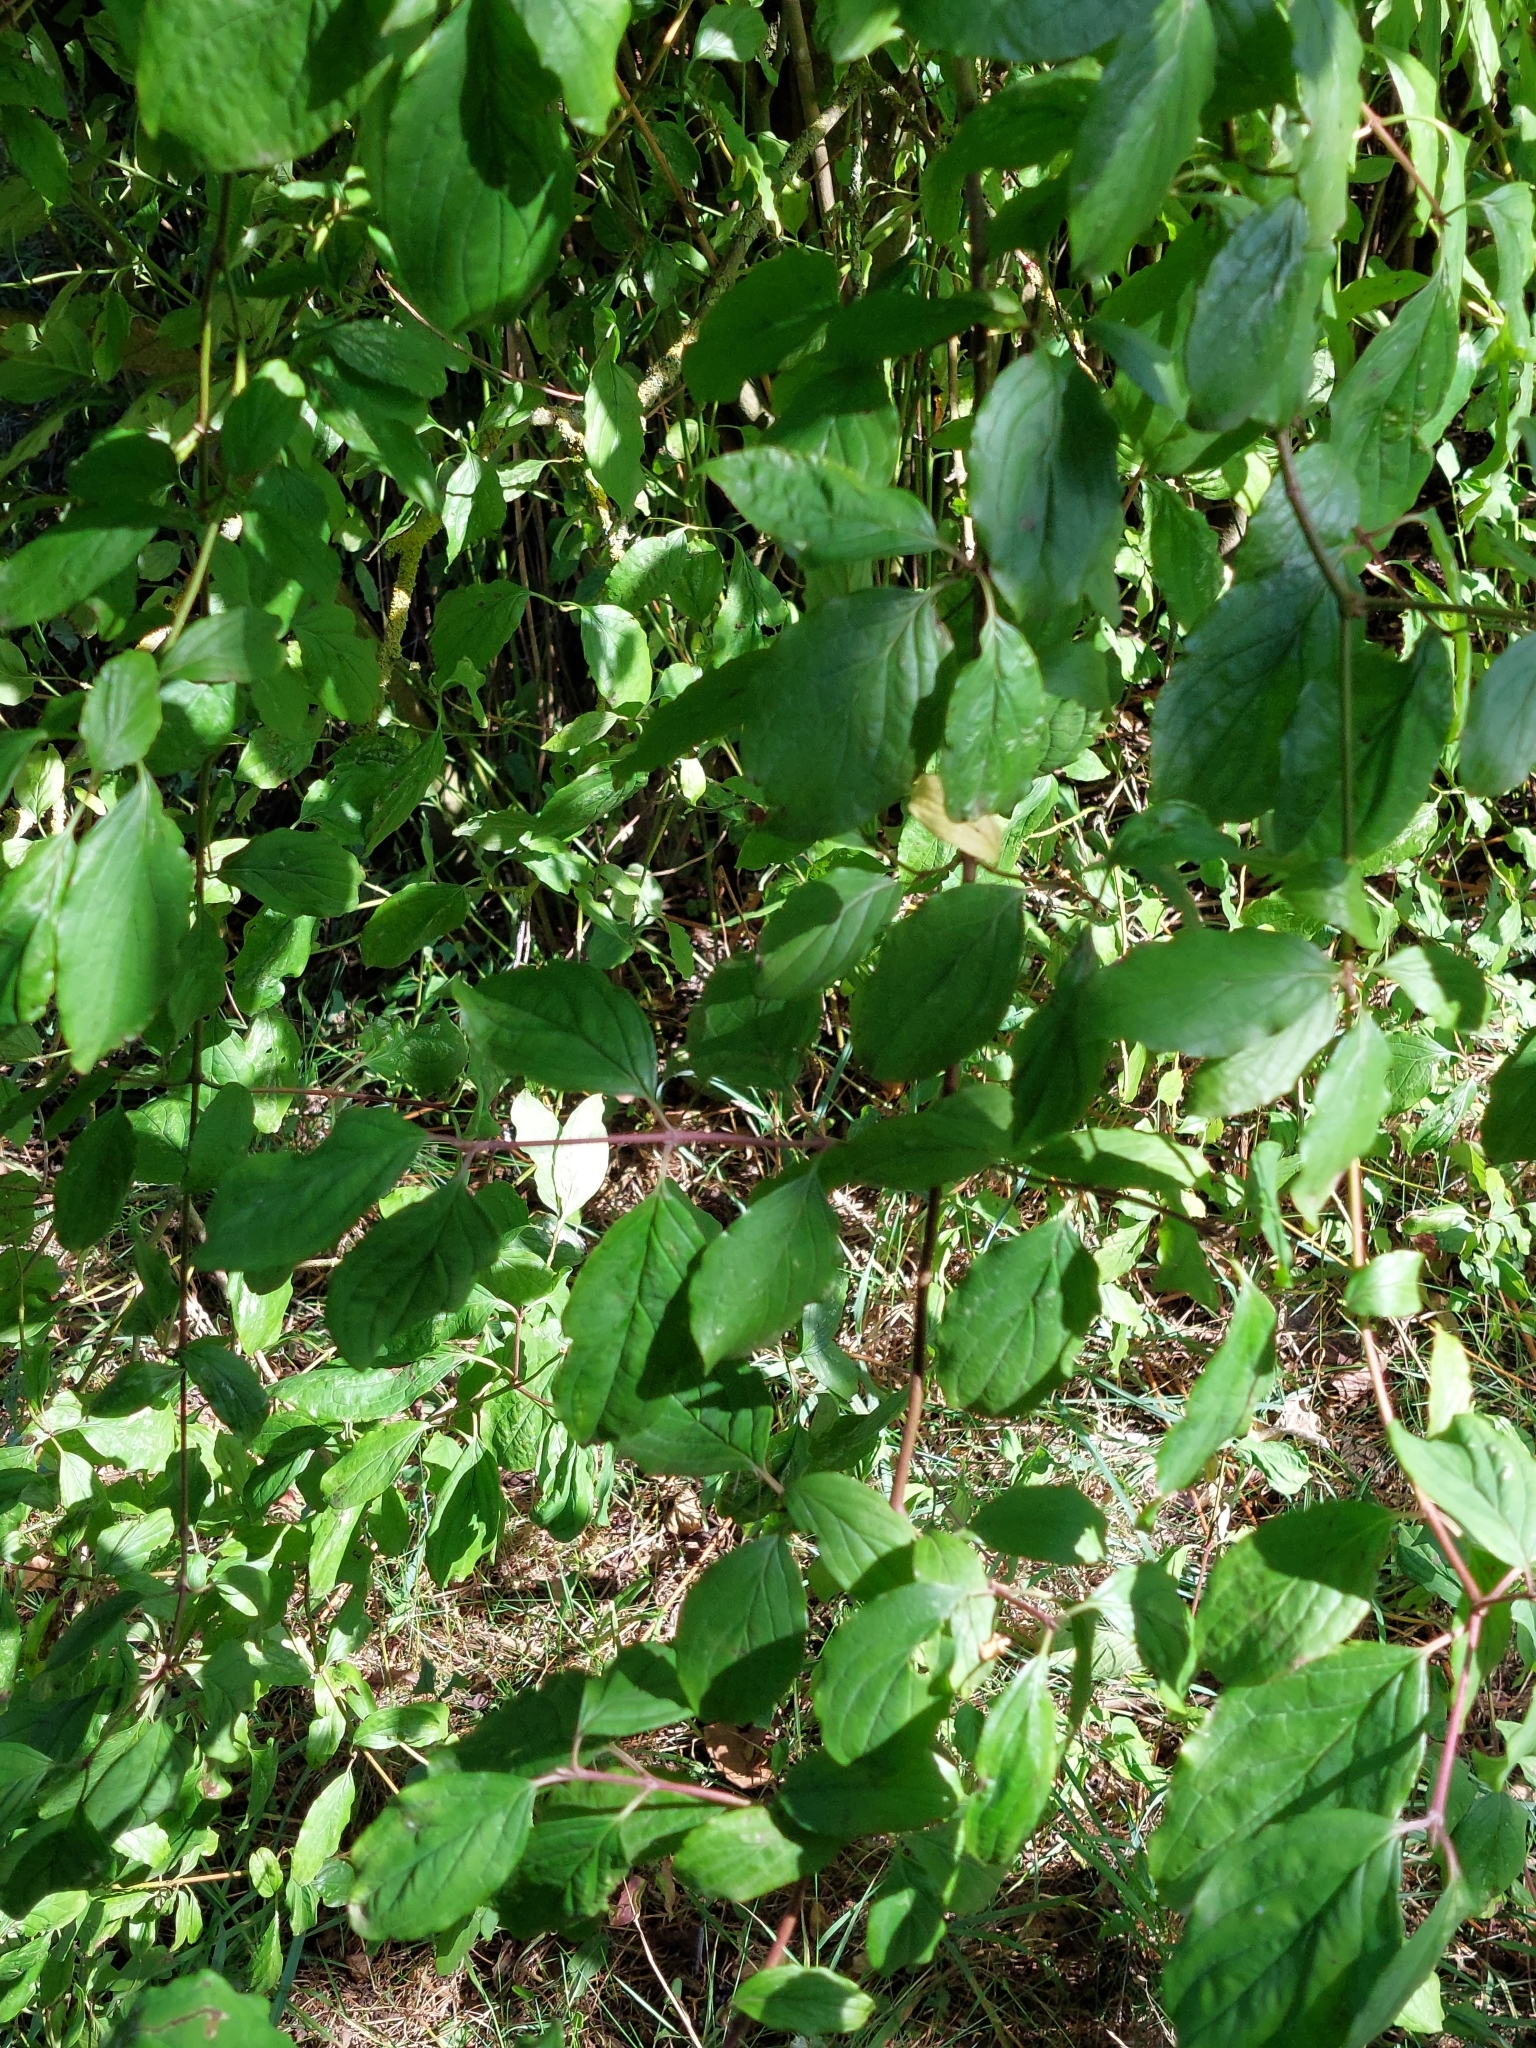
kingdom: Plantae
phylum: Tracheophyta
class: Magnoliopsida
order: Cornales
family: Cornaceae
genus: Cornus
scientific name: Cornus sanguinea
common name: Dogwood
